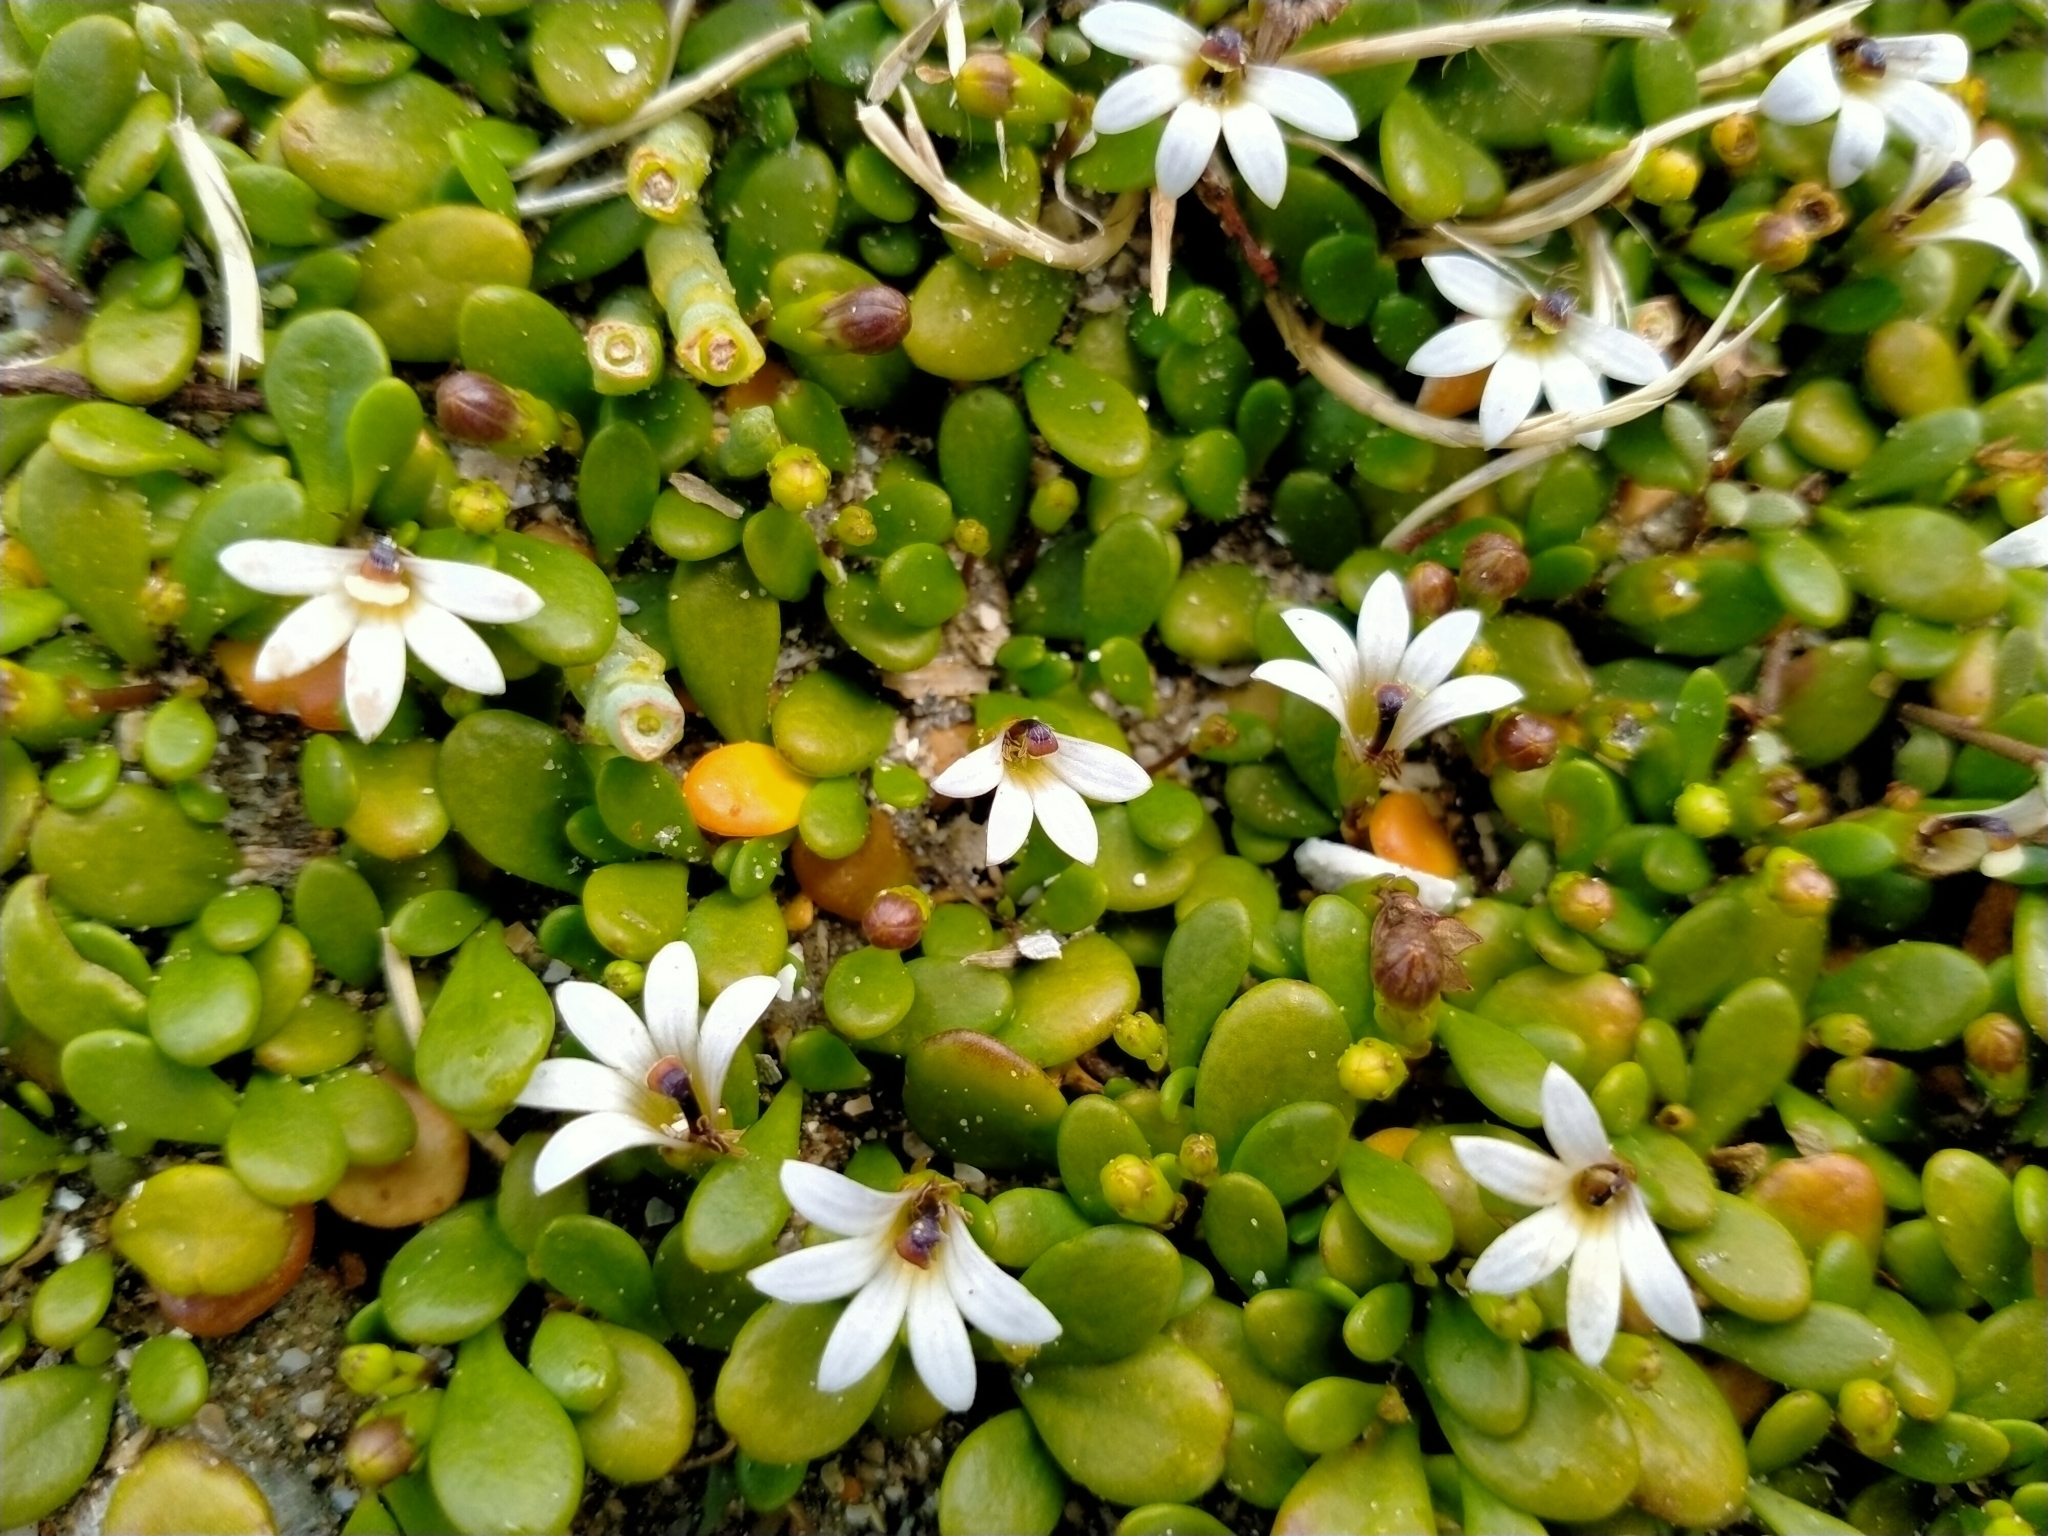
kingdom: Plantae
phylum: Tracheophyta
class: Magnoliopsida
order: Asterales
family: Goodeniaceae
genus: Goodenia
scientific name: Goodenia radicans
